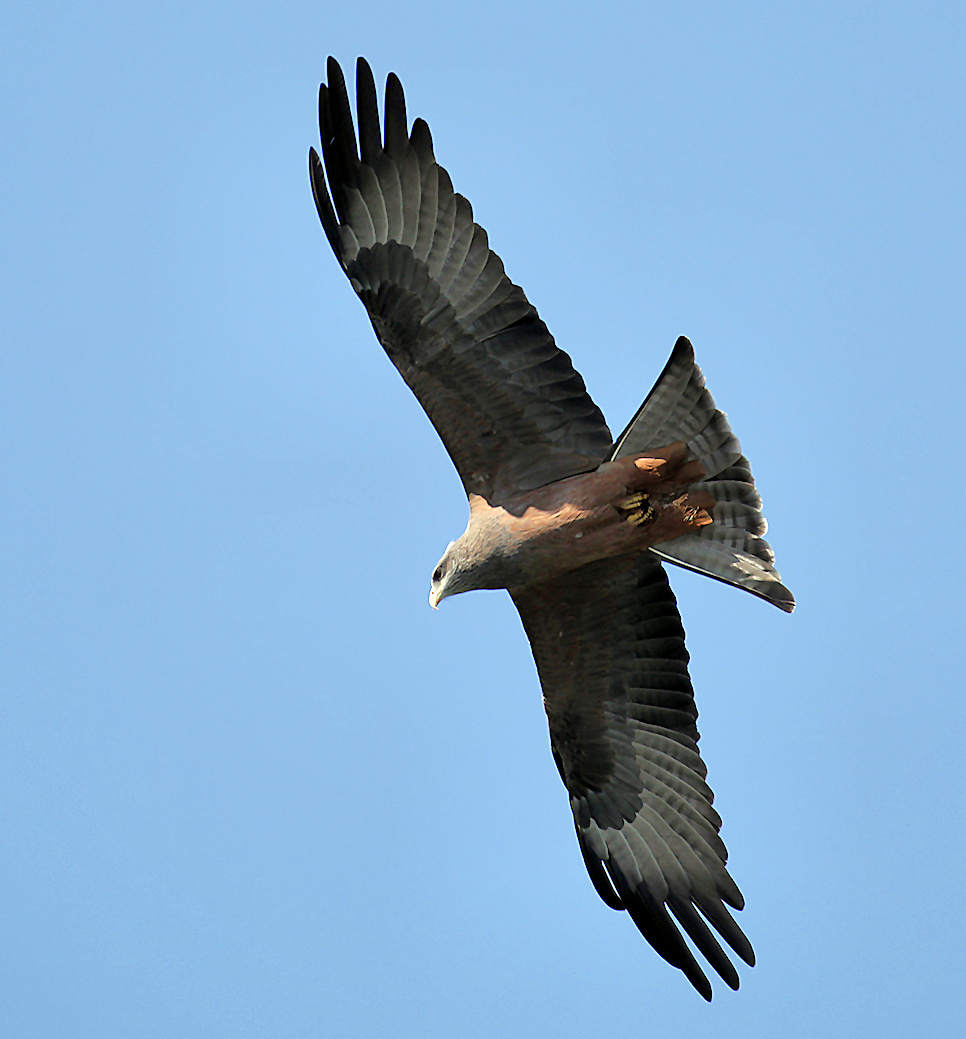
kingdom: Animalia
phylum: Chordata
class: Aves
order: Accipitriformes
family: Accipitridae
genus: Milvus
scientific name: Milvus migrans
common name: Black kite
